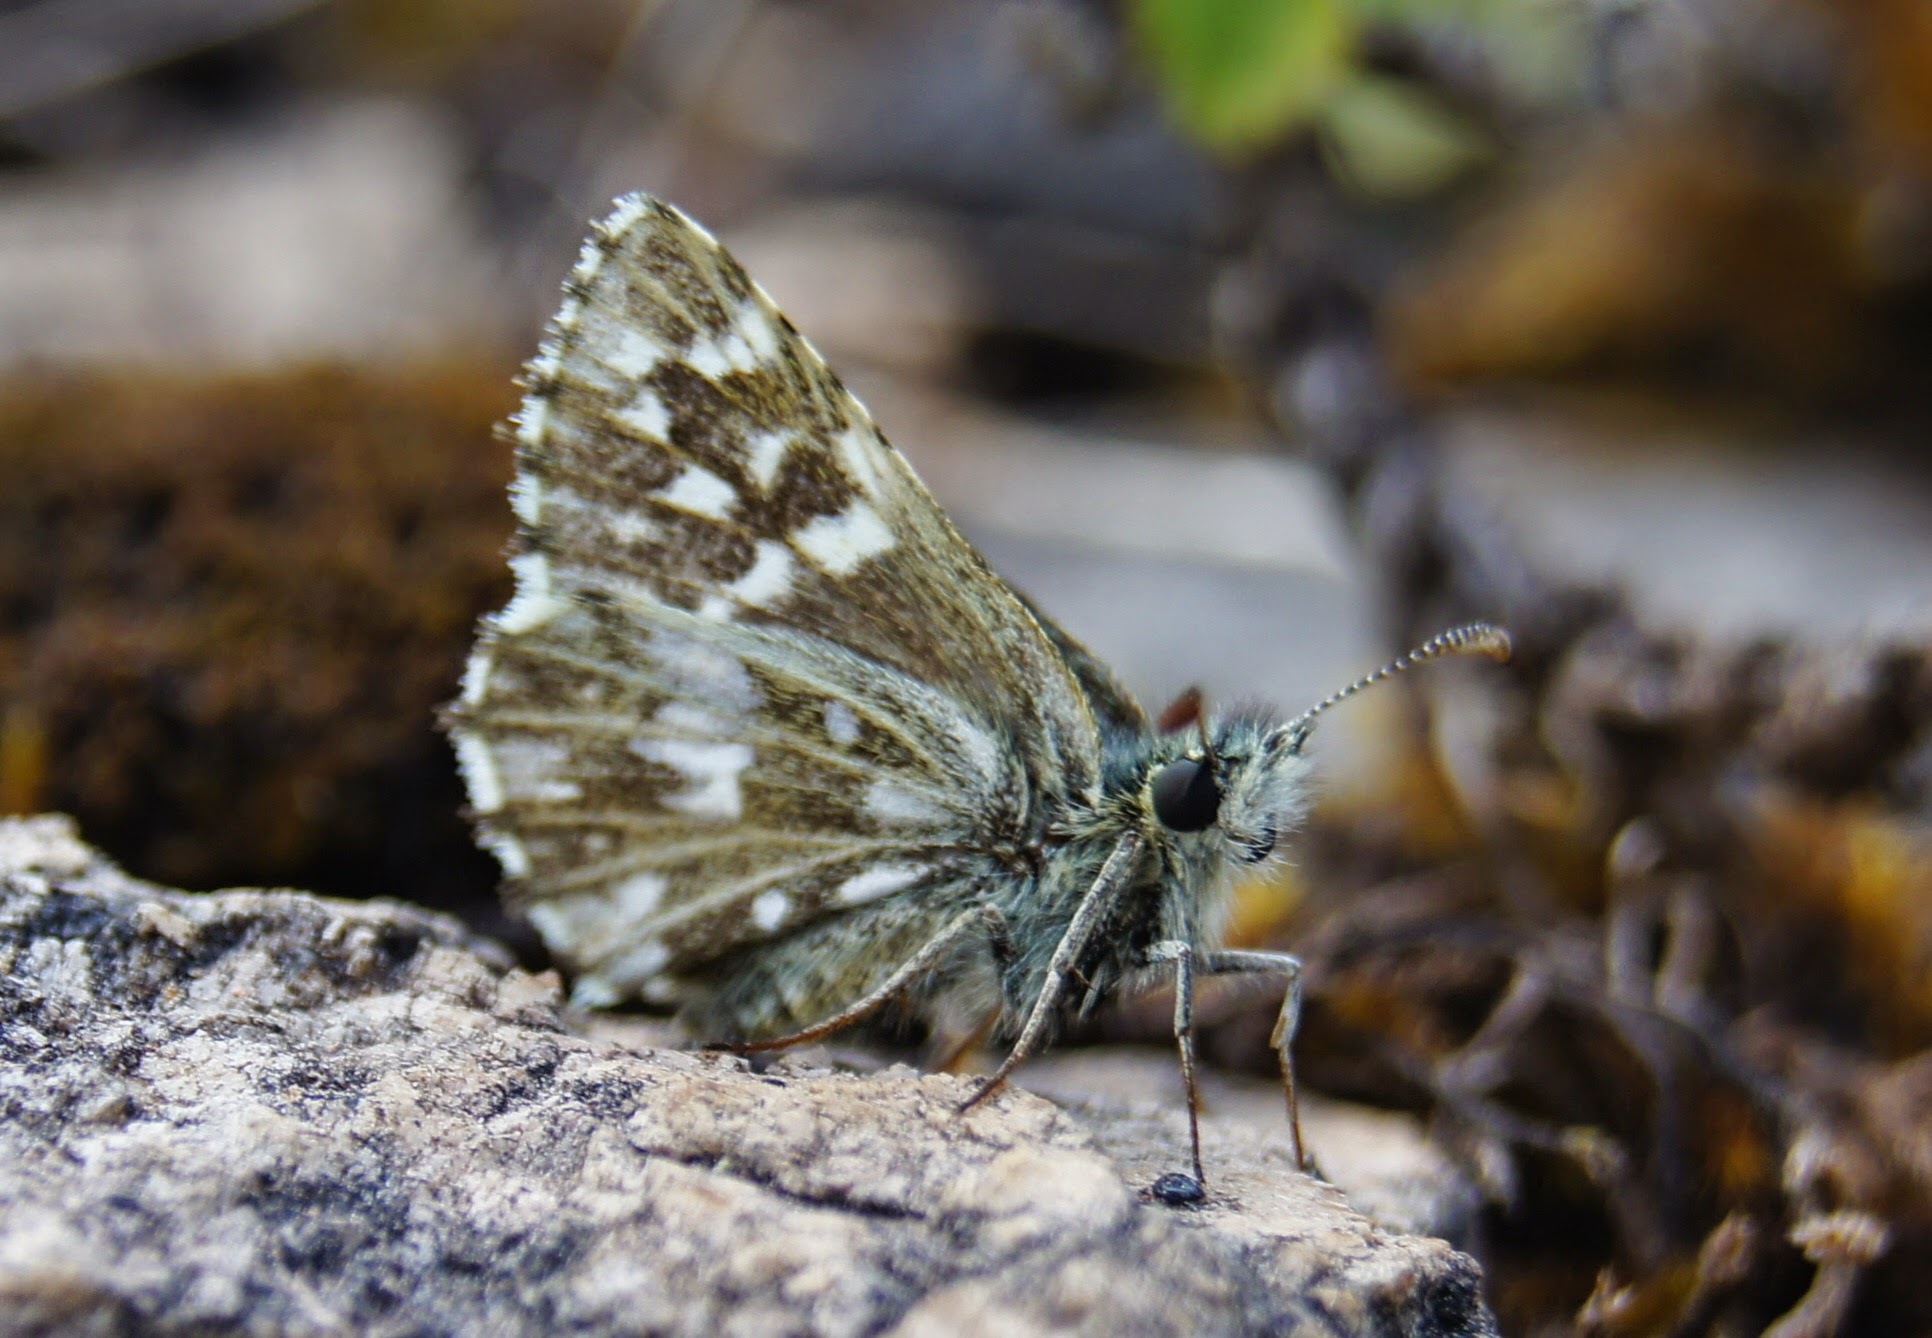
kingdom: Animalia
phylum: Arthropoda
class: Insecta
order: Lepidoptera
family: Hesperiidae
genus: Pyrgus
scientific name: Pyrgus malvae
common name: Grizzled skipper
